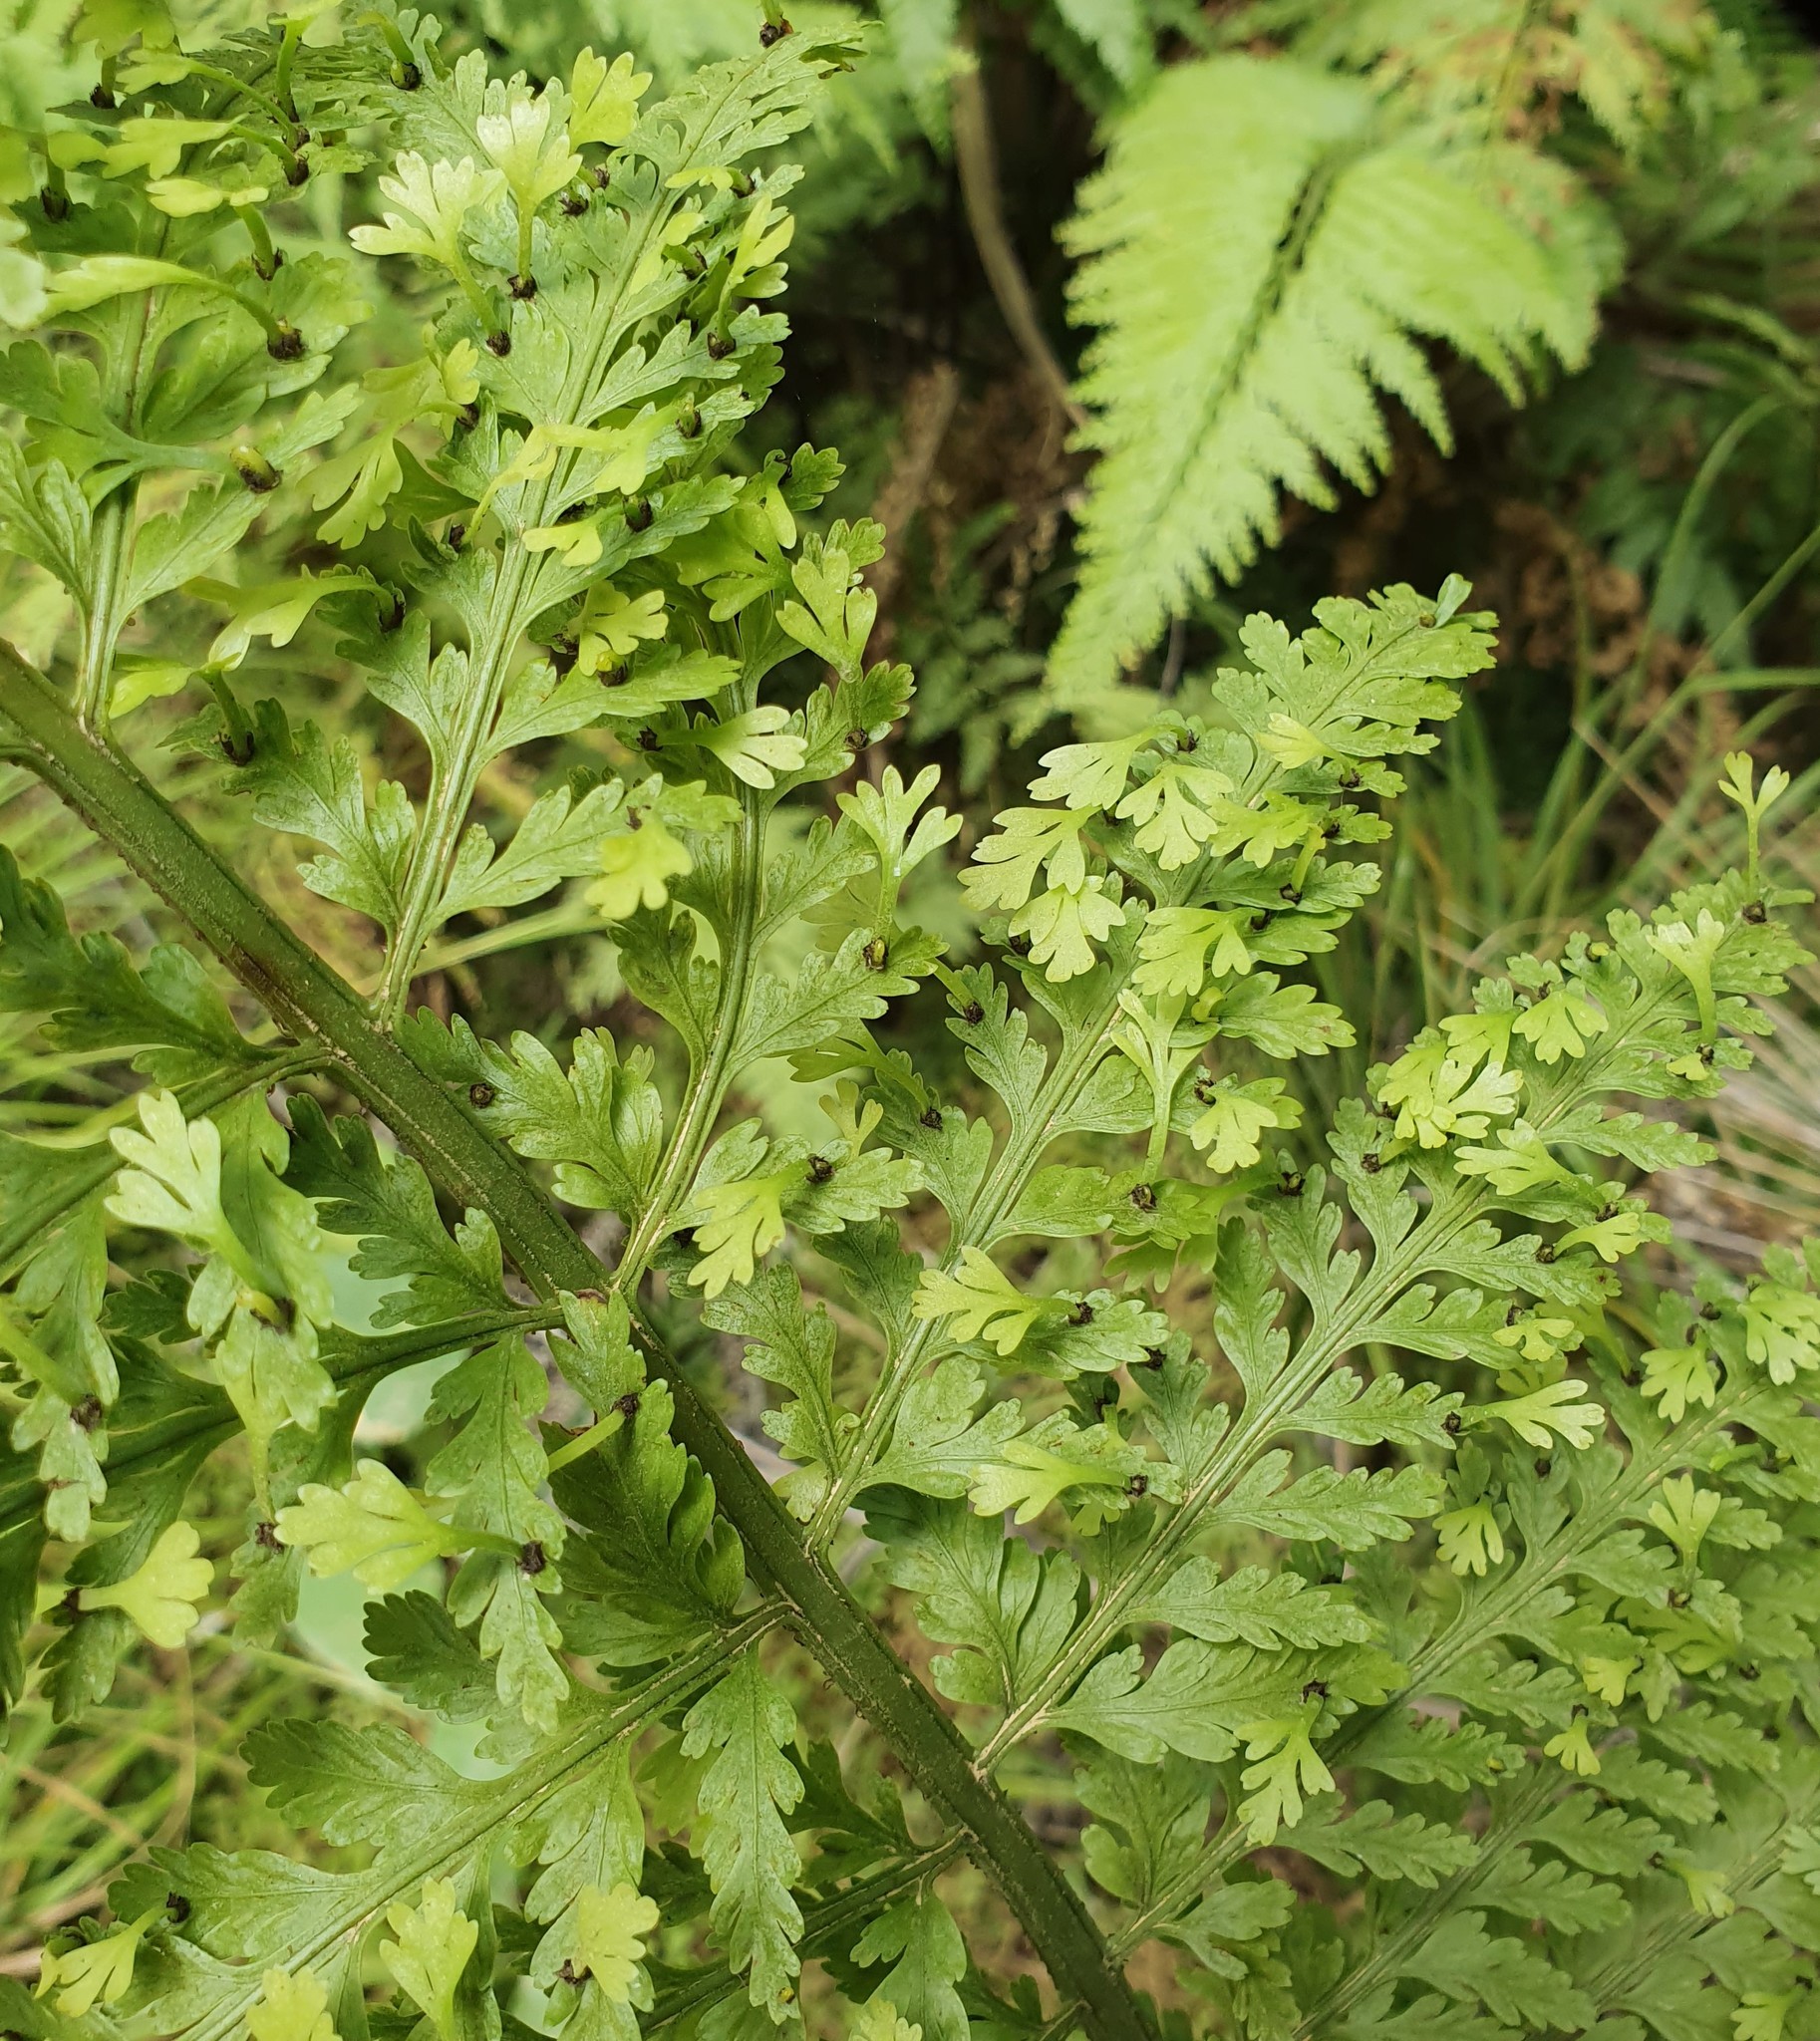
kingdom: Plantae
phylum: Tracheophyta
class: Polypodiopsida
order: Polypodiales
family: Aspleniaceae
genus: Asplenium
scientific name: Asplenium bulbiferum
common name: Mother fern
